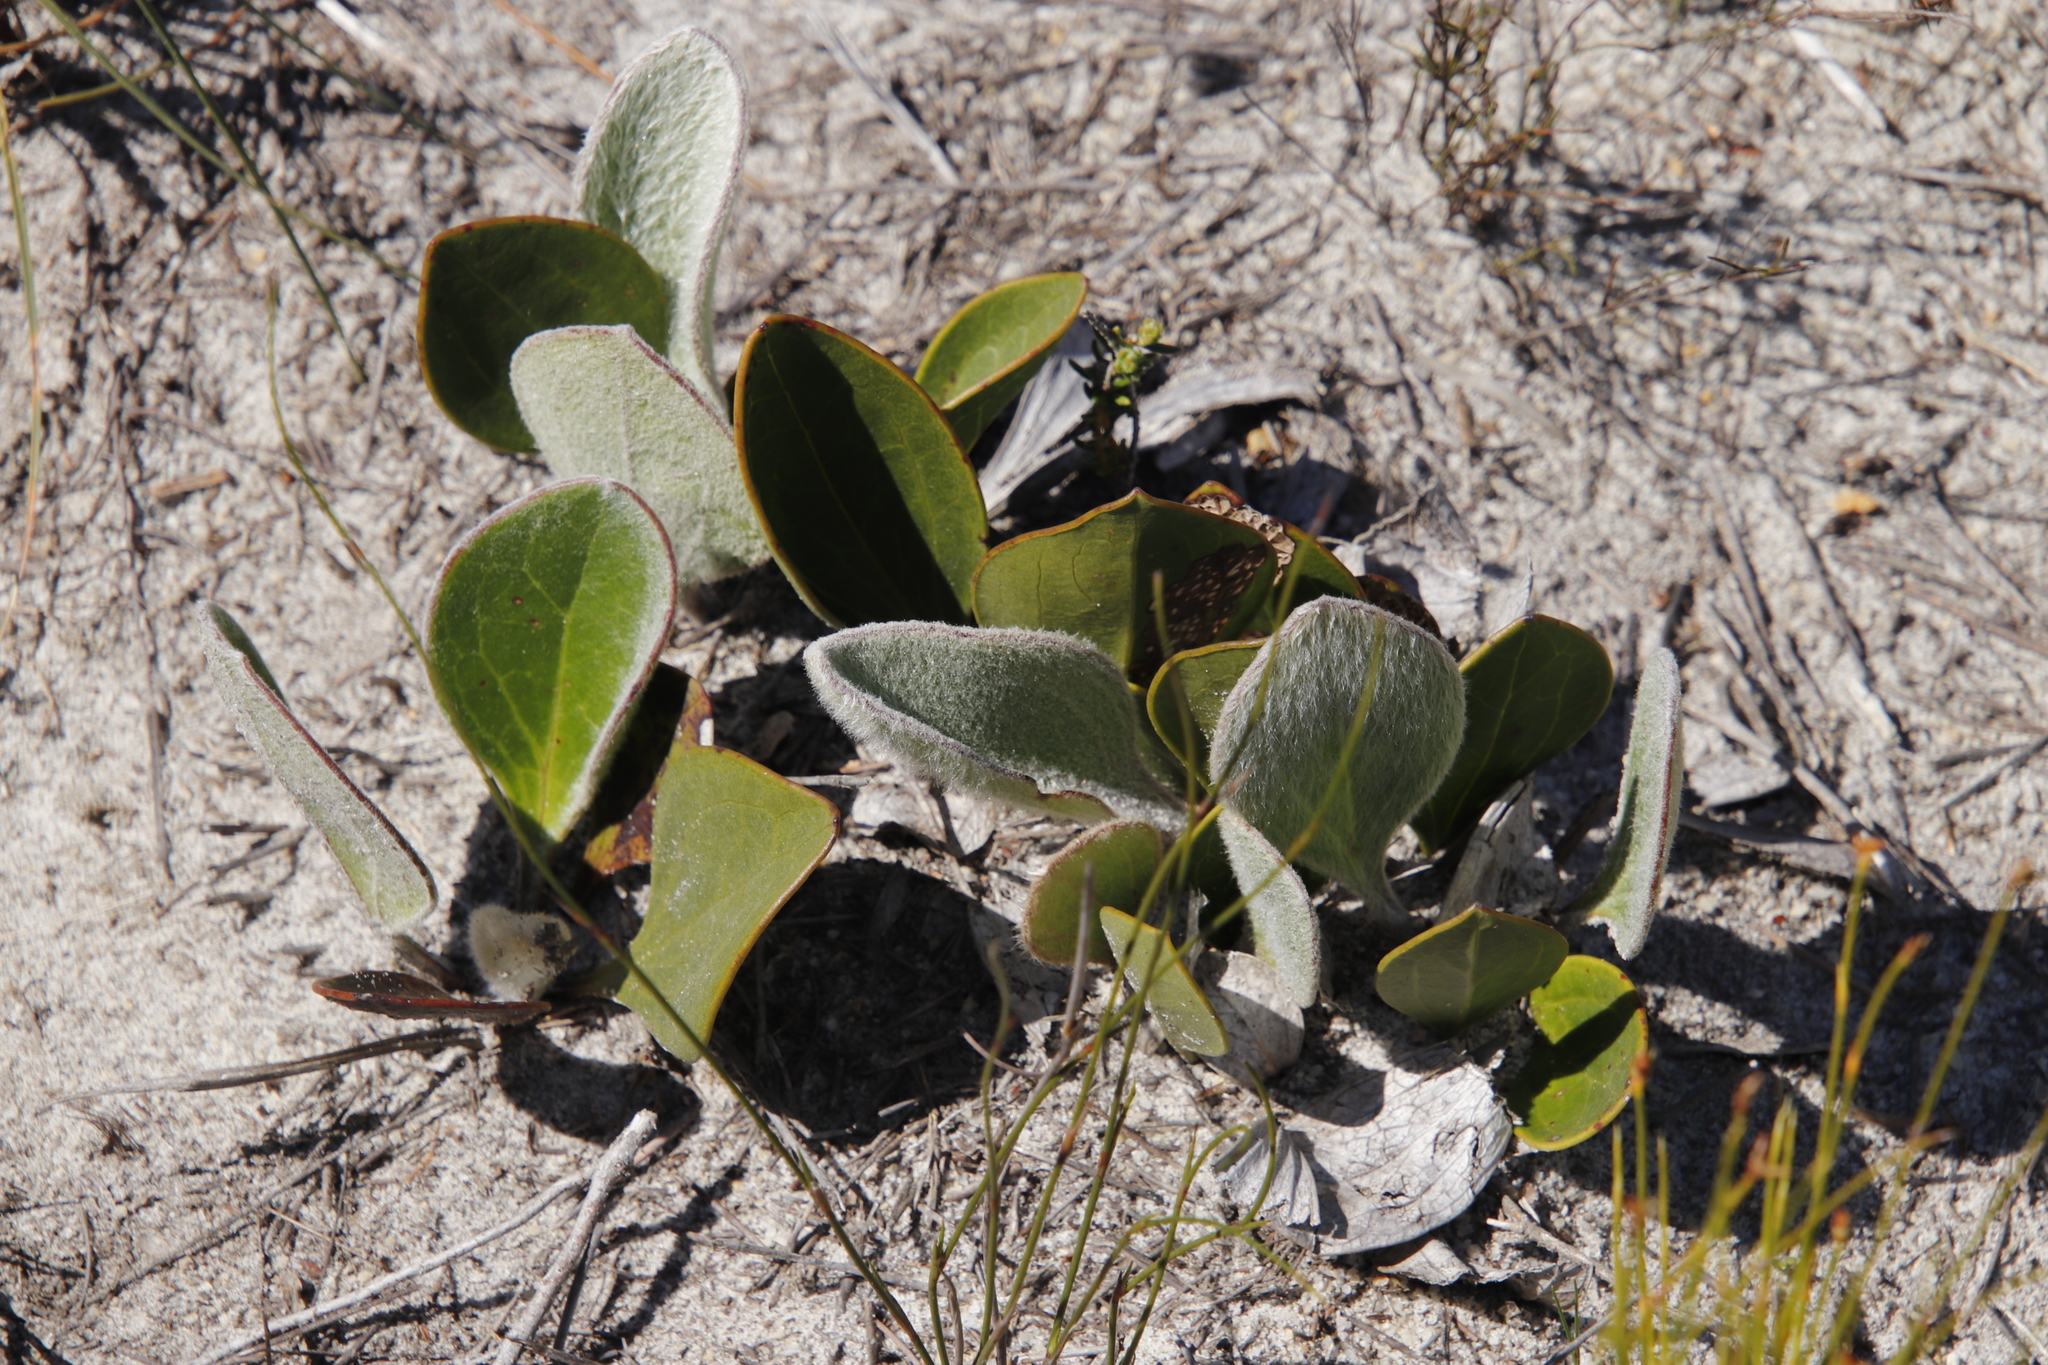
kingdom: Plantae
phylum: Tracheophyta
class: Magnoliopsida
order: Asterales
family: Asteraceae
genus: Mairia
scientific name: Mairia coriacea
